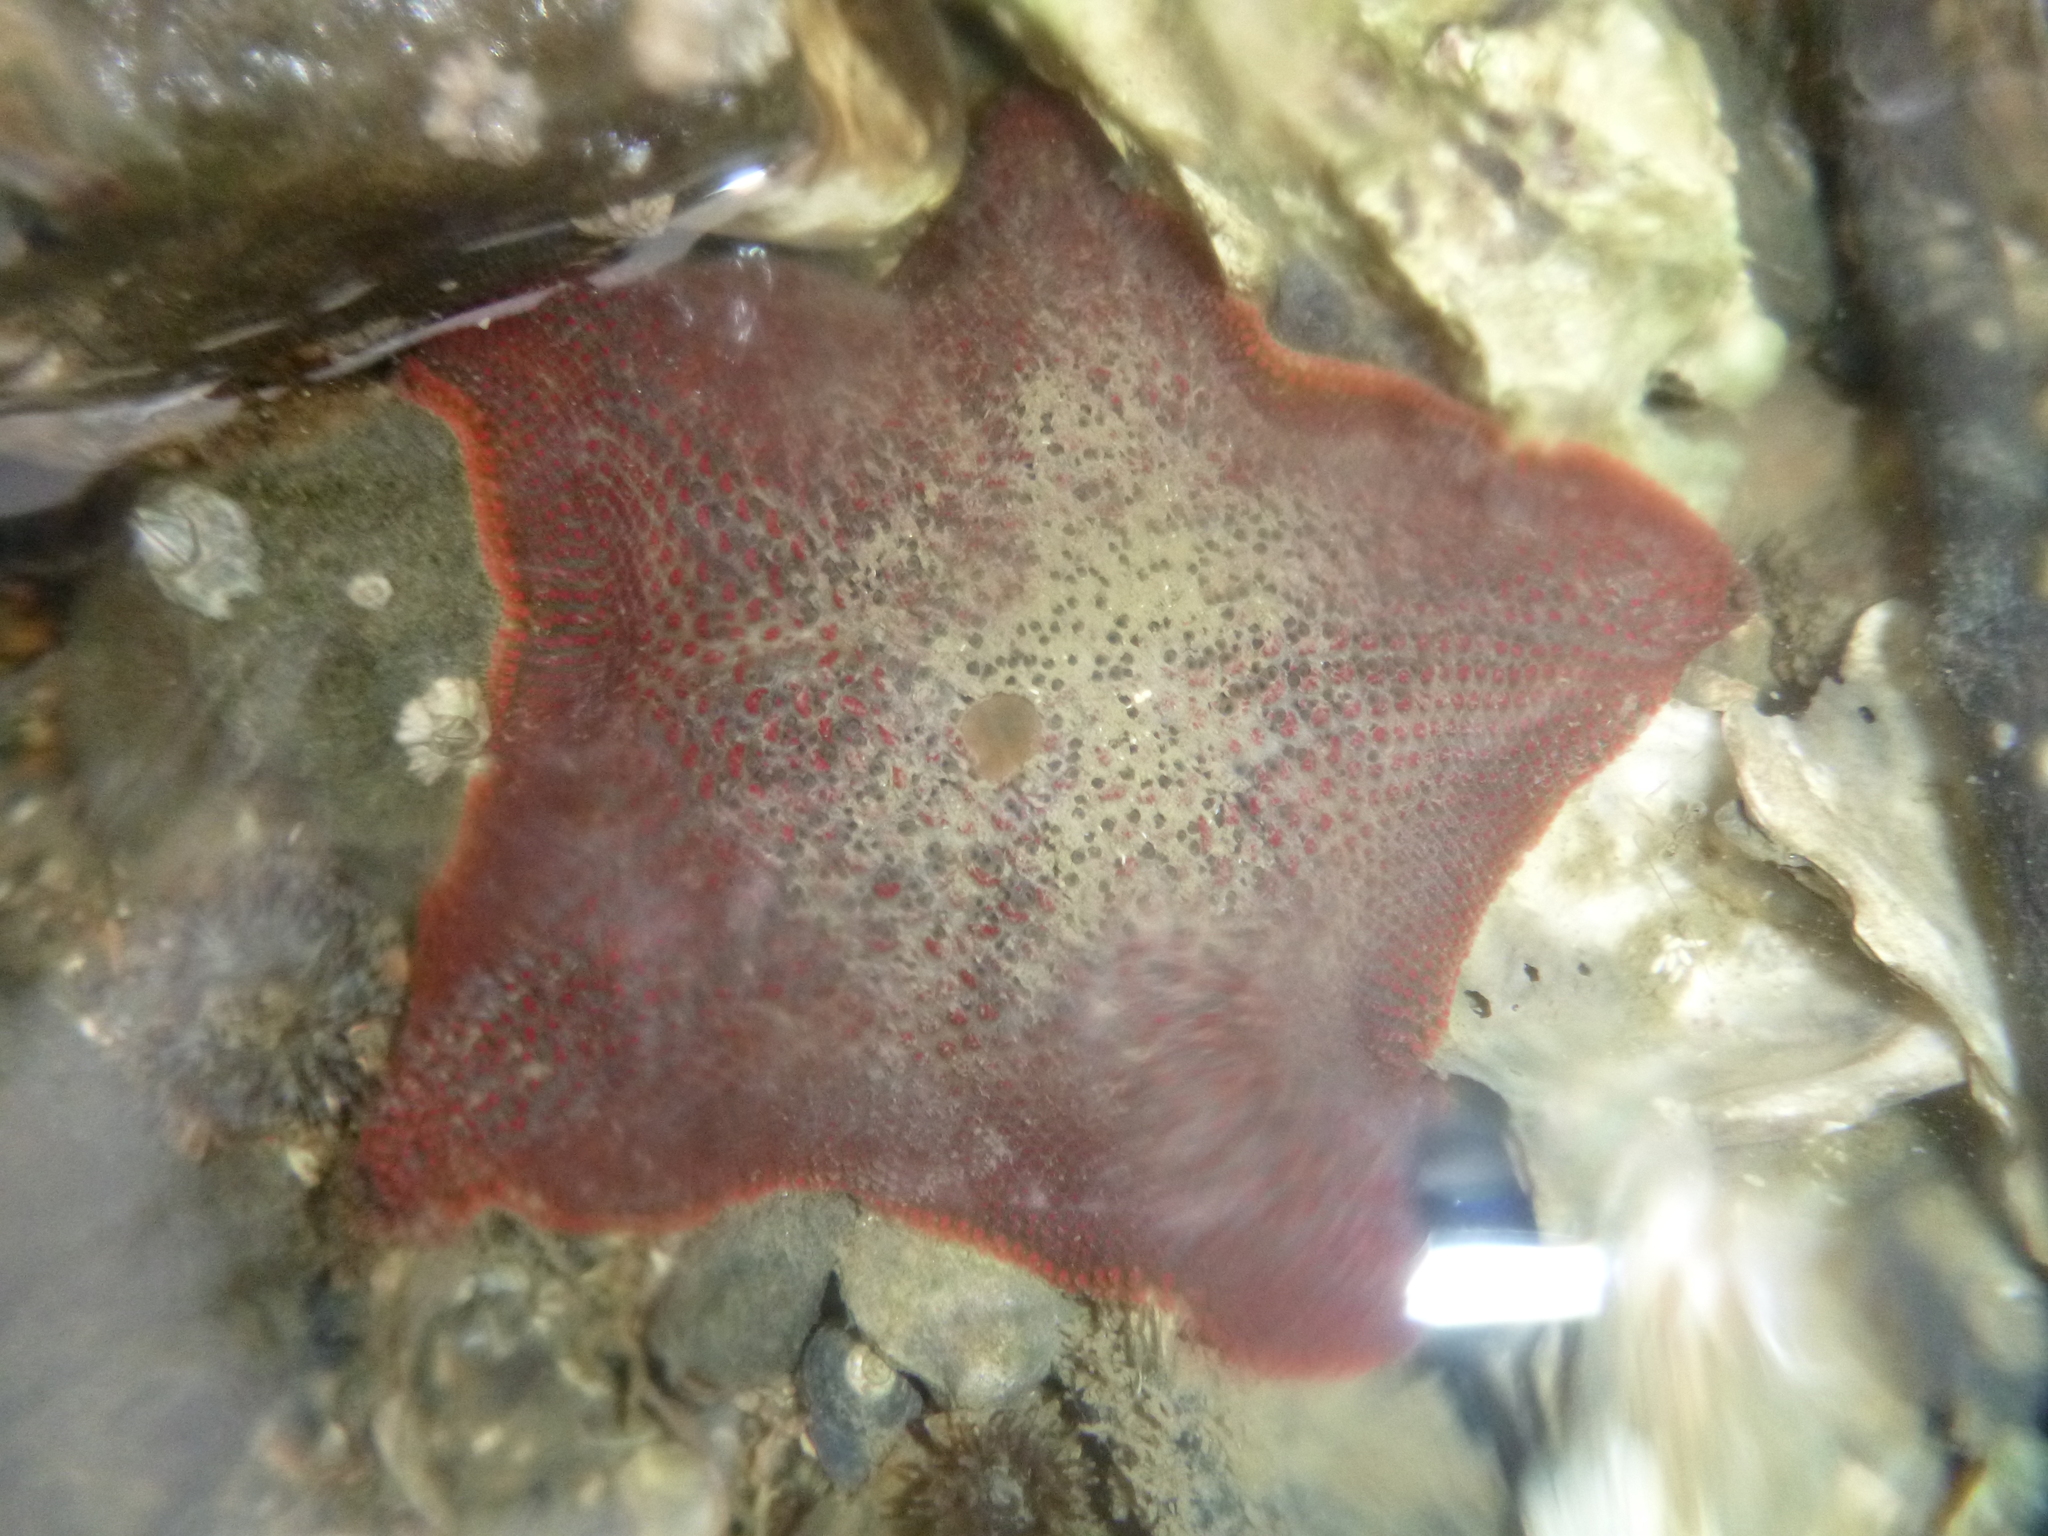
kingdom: Animalia
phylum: Echinodermata
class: Asteroidea
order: Valvatida
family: Asterinidae
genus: Patiriella
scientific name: Patiriella regularis
